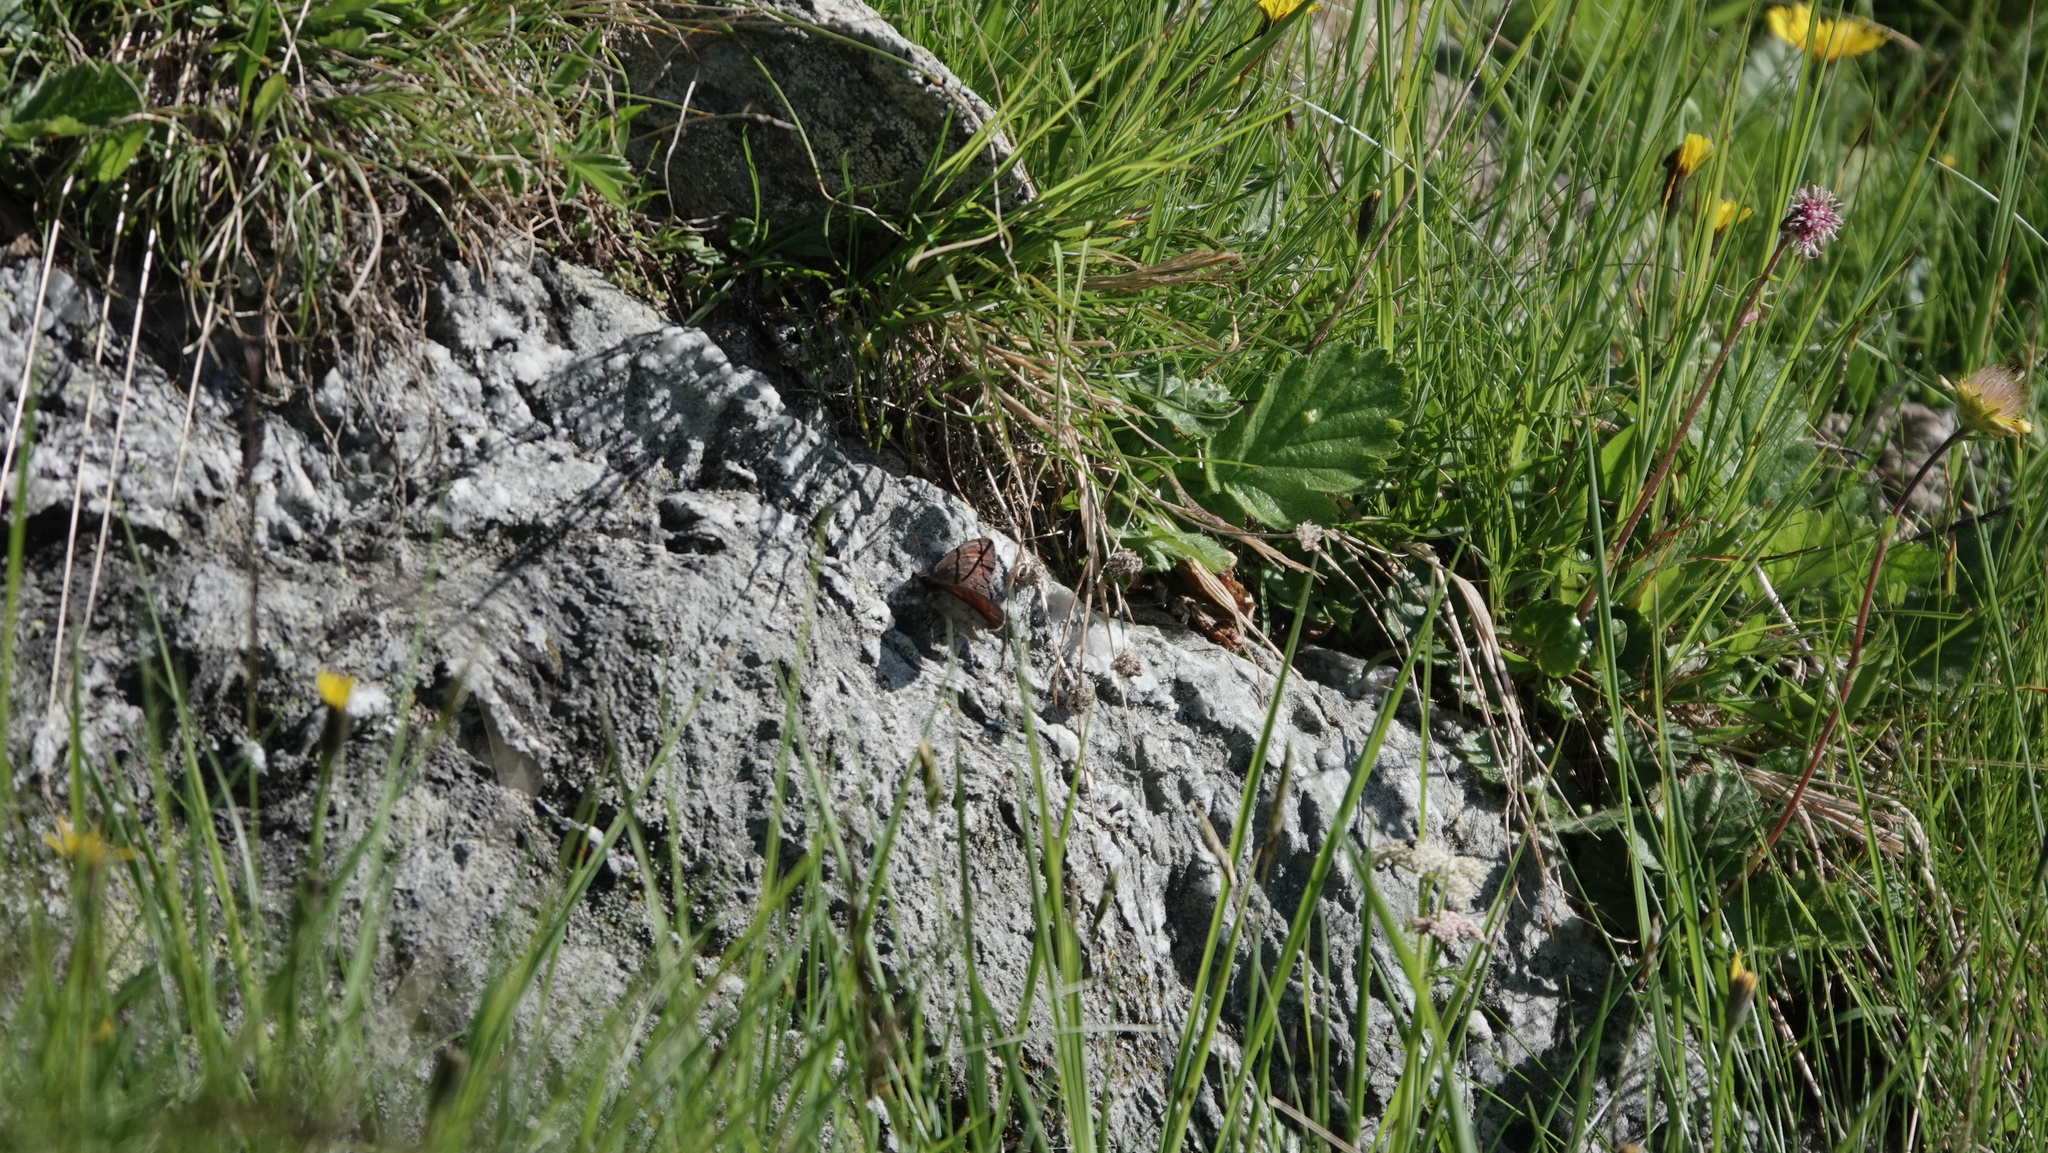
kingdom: Animalia
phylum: Arthropoda
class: Insecta
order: Lepidoptera
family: Nymphalidae
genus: Erebia
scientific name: Erebia pandrose
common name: Dewy ringlet
